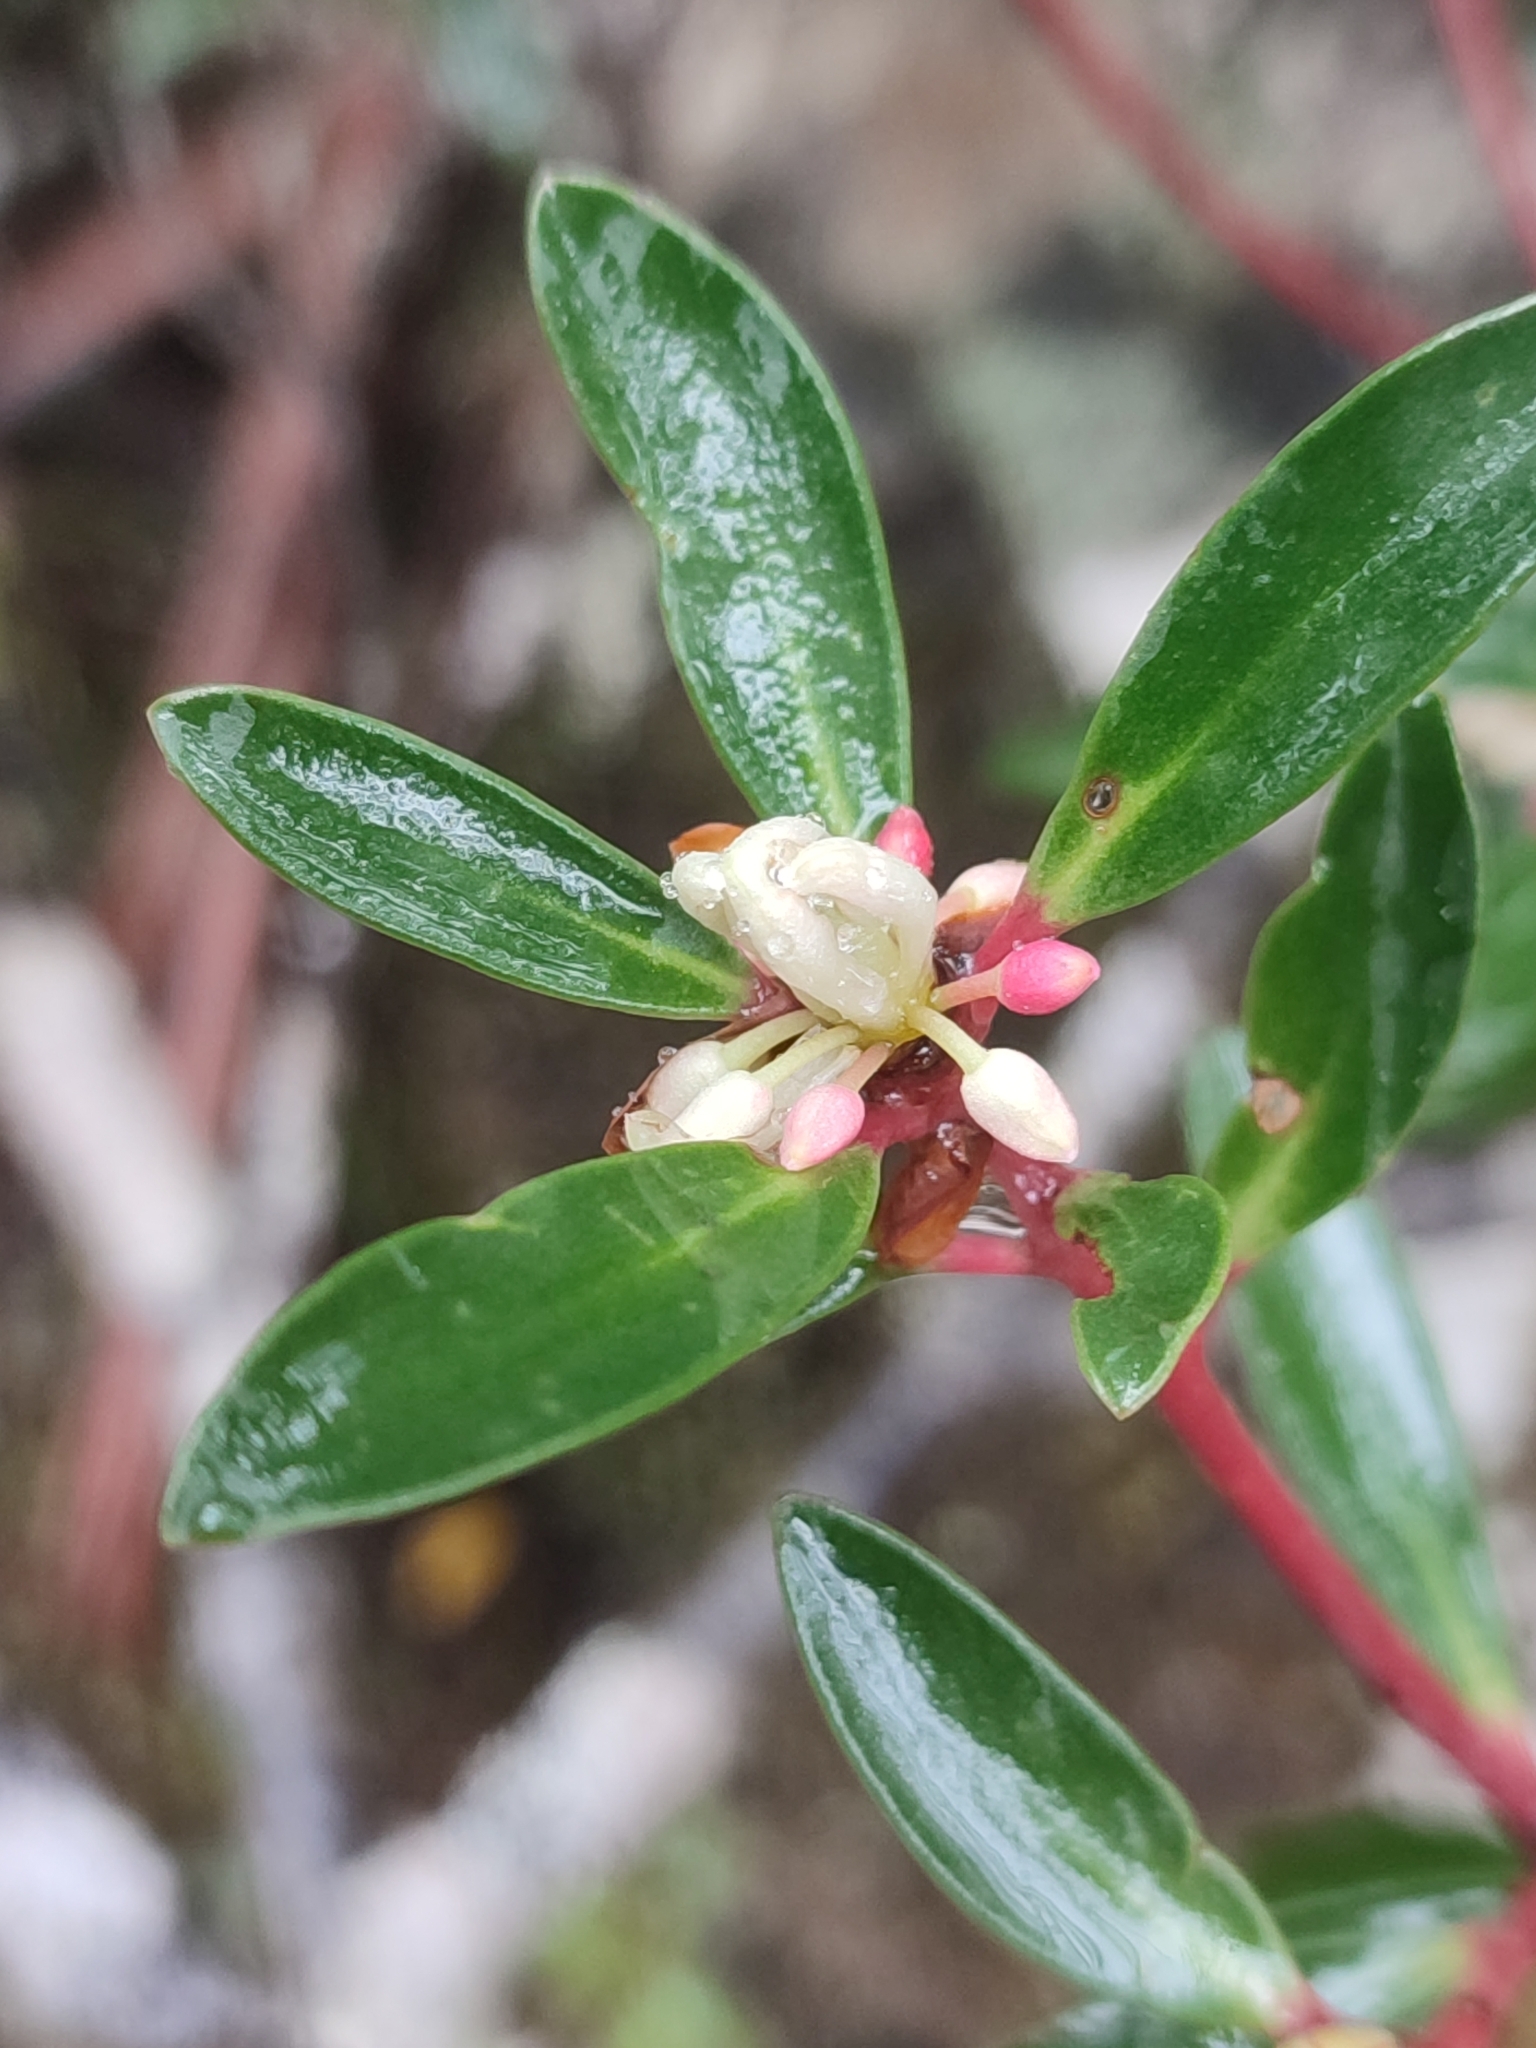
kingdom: Plantae
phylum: Tracheophyta
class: Magnoliopsida
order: Canellales
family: Winteraceae
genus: Drimys
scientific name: Drimys aromatica
